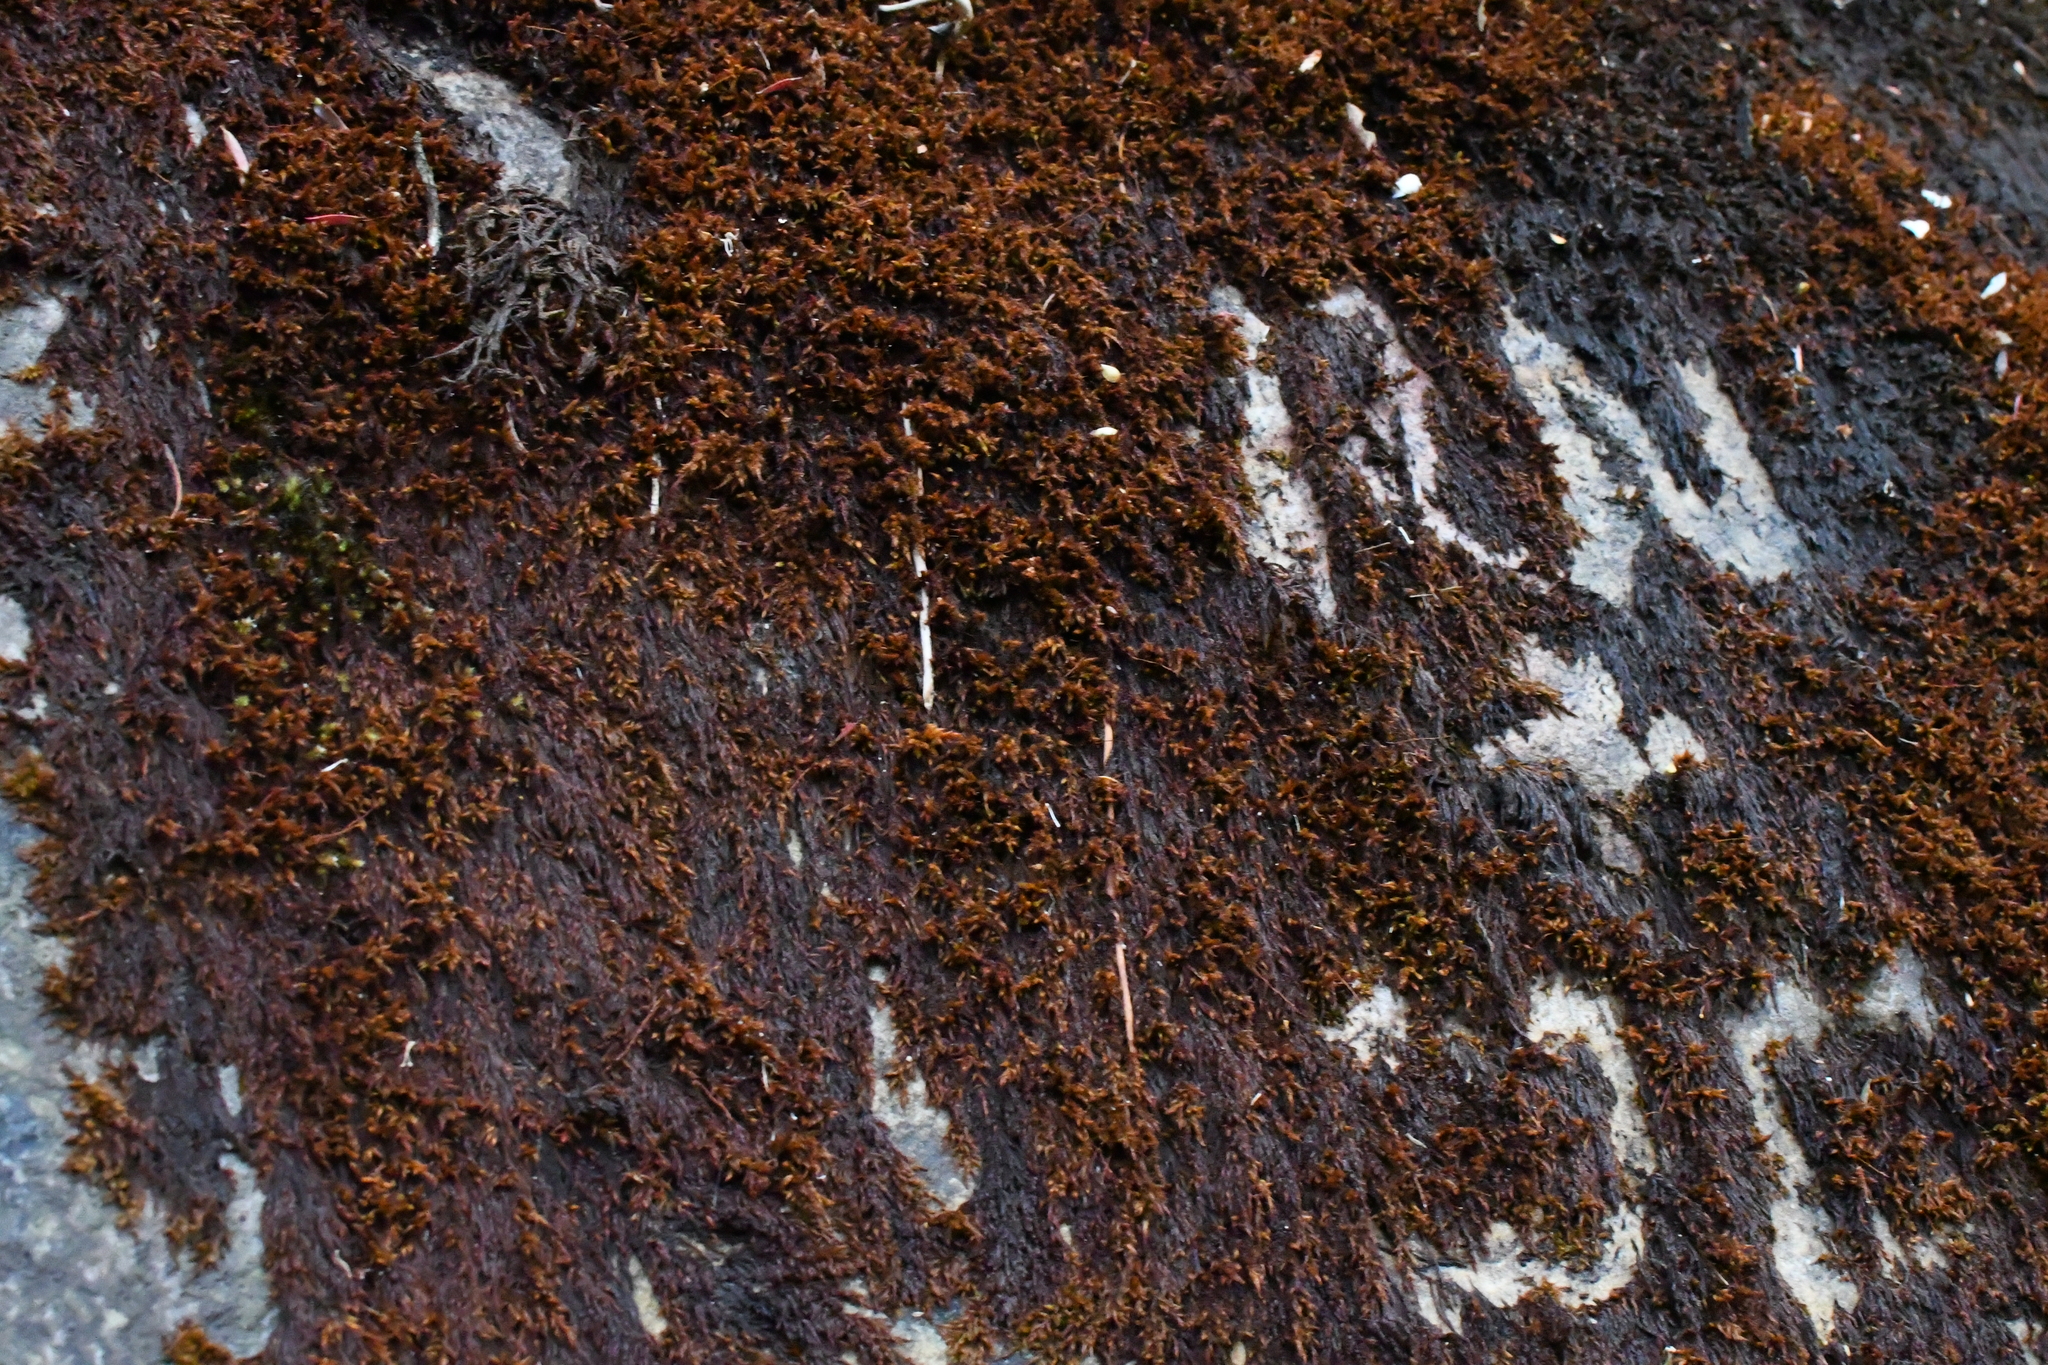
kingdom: Plantae
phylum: Bryophyta
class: Bryopsida
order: Hedwigiales
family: Hedwigiaceae
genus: Rhacocarpus
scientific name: Rhacocarpus purpurascens
